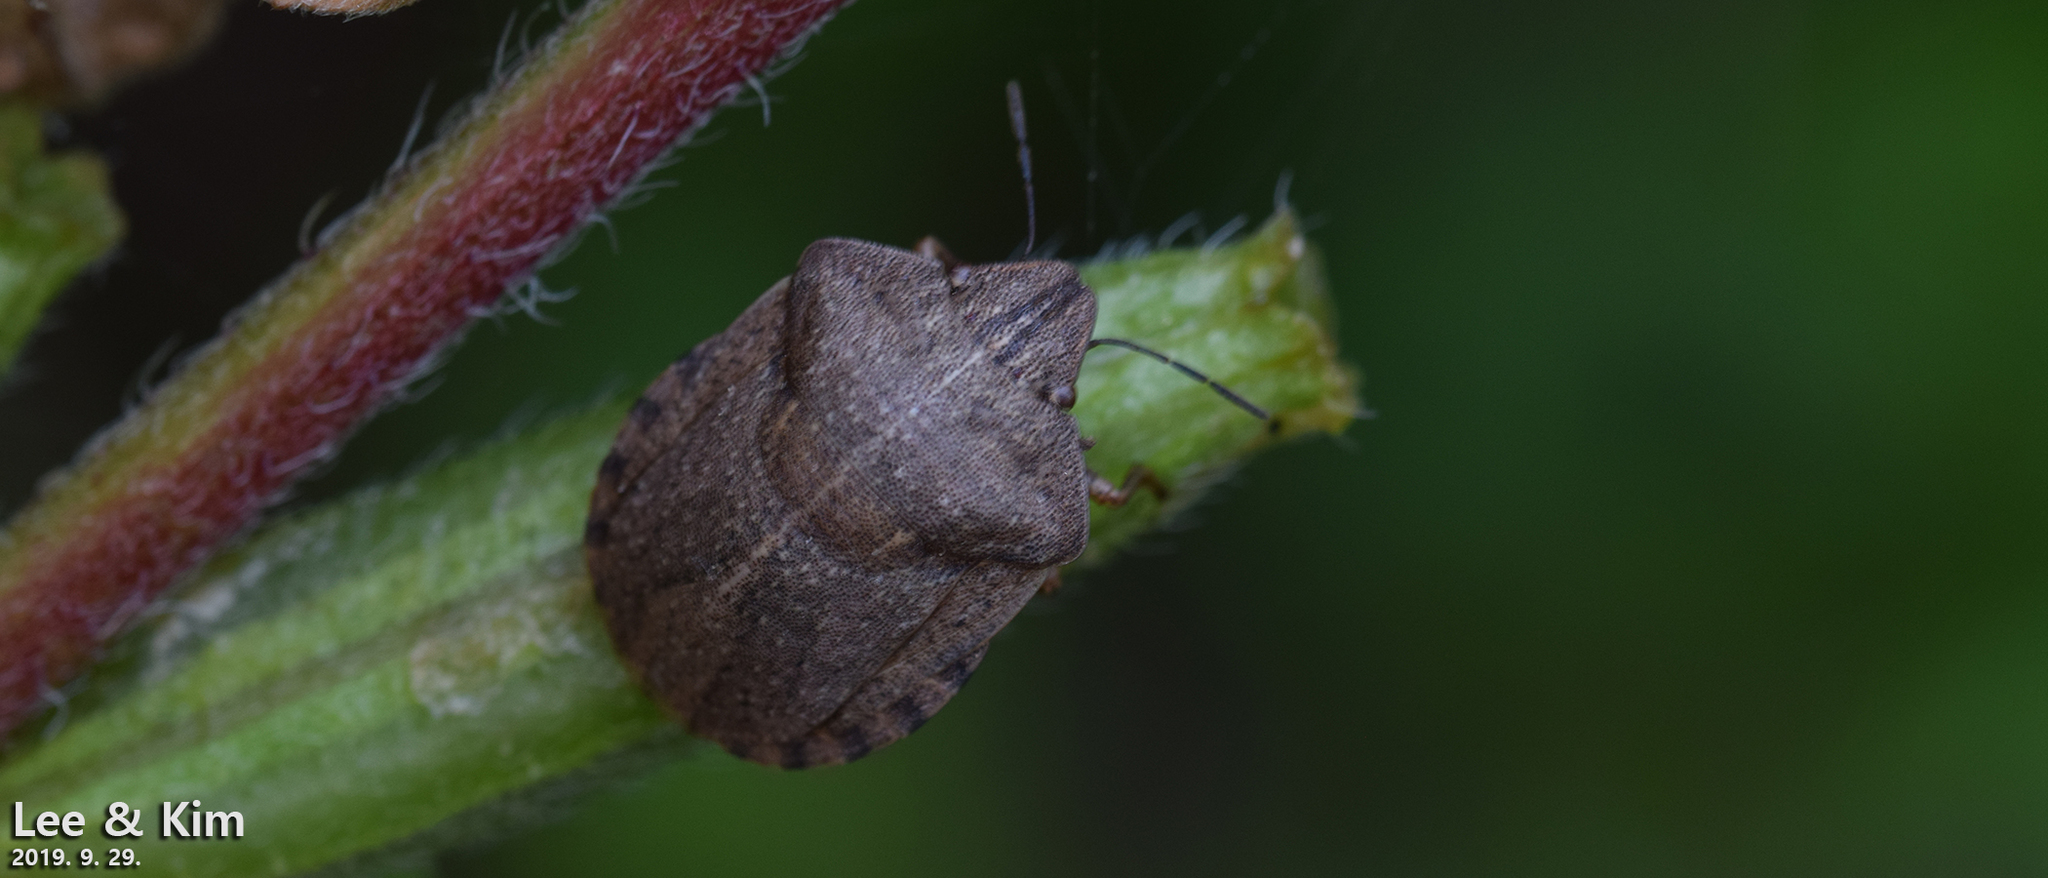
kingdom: Animalia
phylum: Arthropoda
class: Insecta
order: Hemiptera
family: Scutelleridae
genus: Eurygaster
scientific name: Eurygaster testudinaria
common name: Tortoise bug
